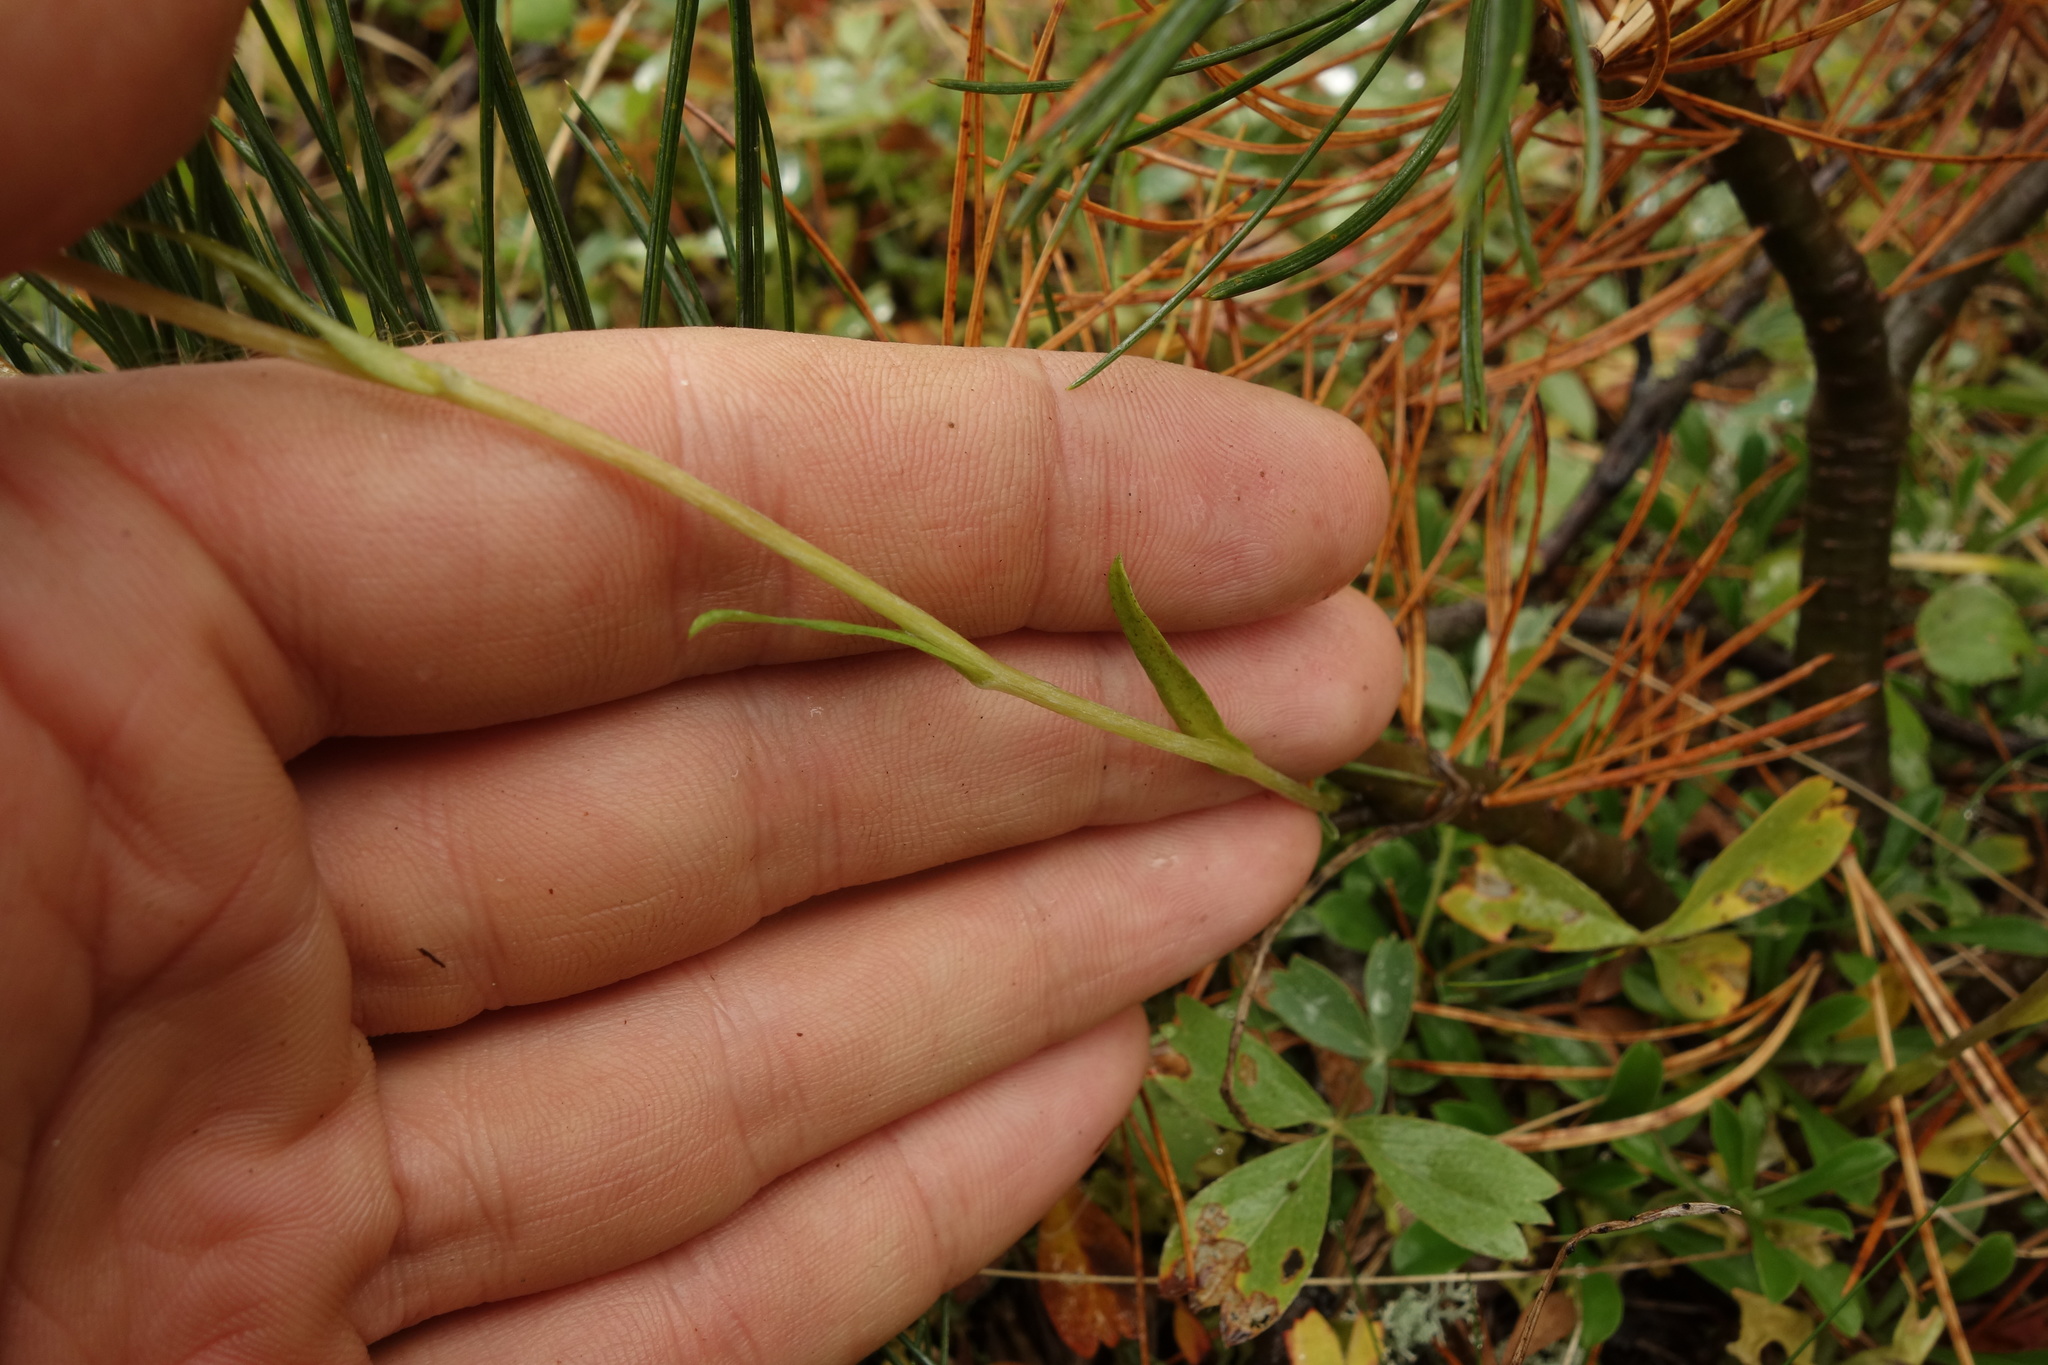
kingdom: Plantae
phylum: Tracheophyta
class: Magnoliopsida
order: Asterales
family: Asteraceae
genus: Antennaria
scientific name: Antennaria dioica
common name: Mountain everlasting
